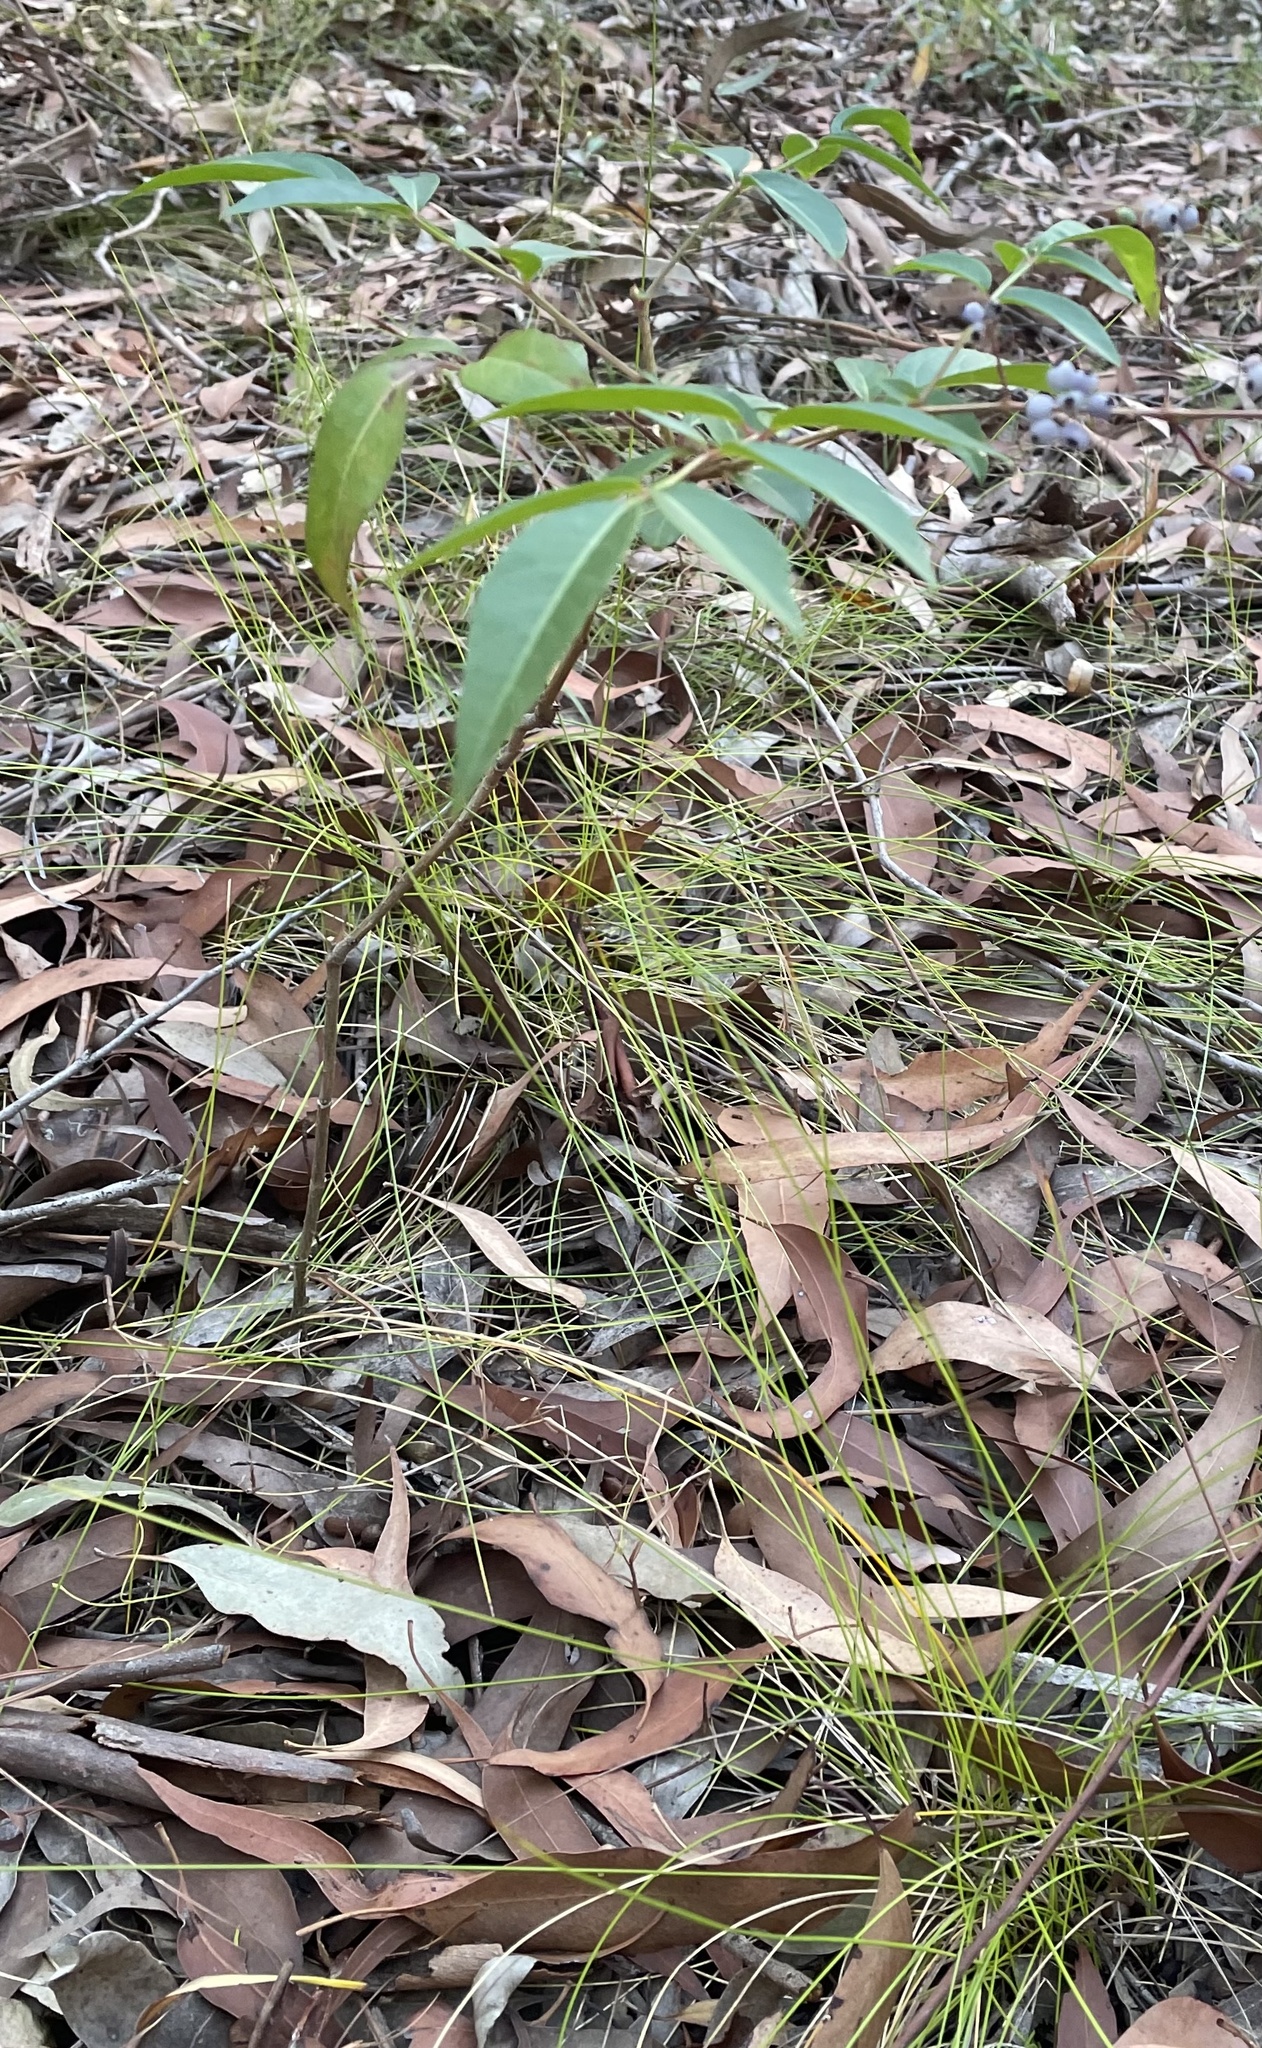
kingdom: Plantae
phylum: Tracheophyta
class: Magnoliopsida
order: Apiales
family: Araliaceae
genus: Polyscias
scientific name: Polyscias sambucifolia
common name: Elderberry-ash
